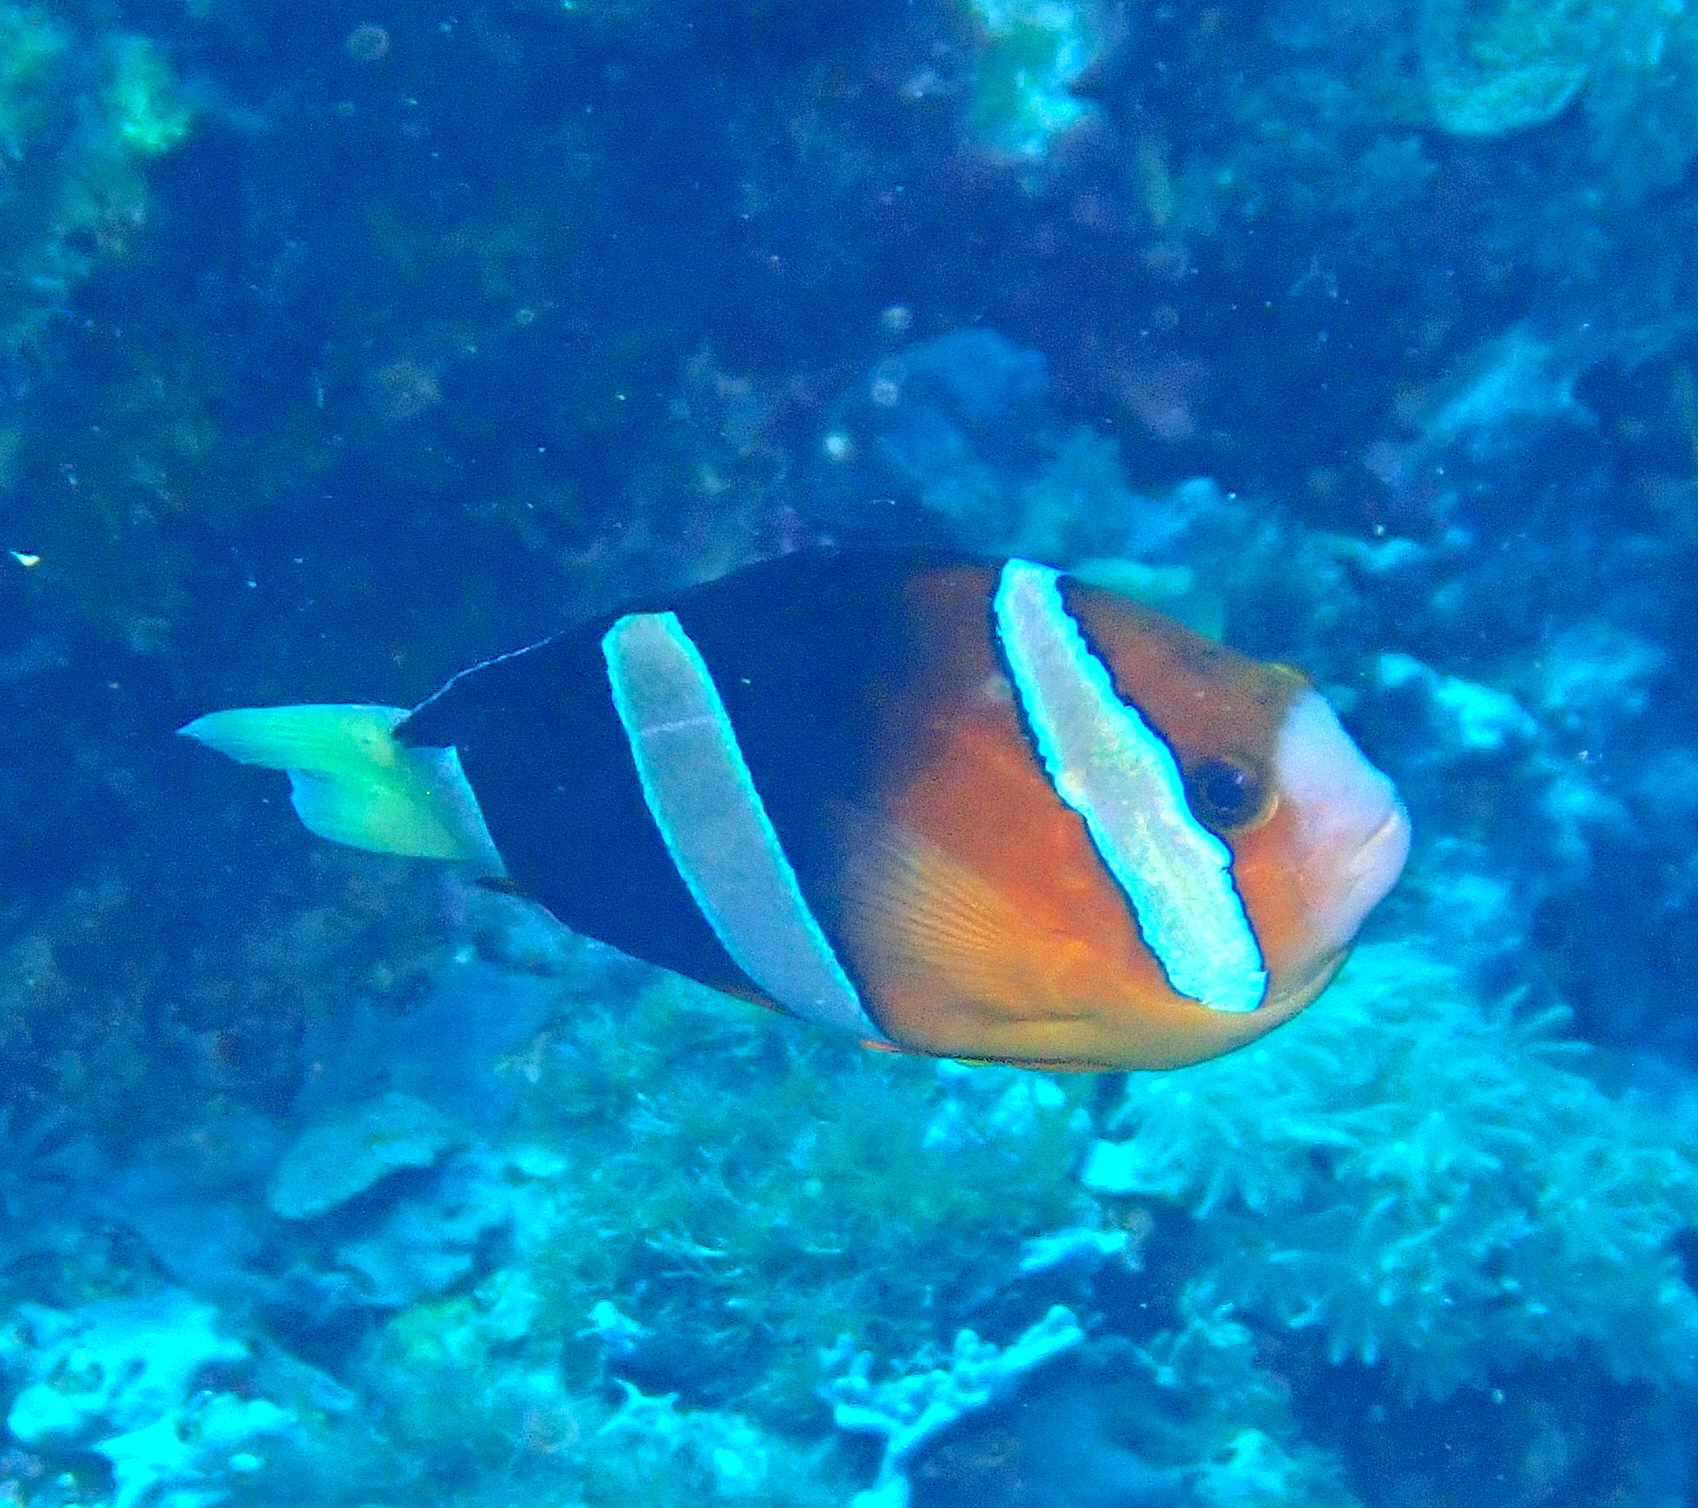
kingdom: Animalia
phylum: Chordata
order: Perciformes
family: Pomacentridae
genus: Amphiprion
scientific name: Amphiprion clarkii
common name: Clark's anemonefish
